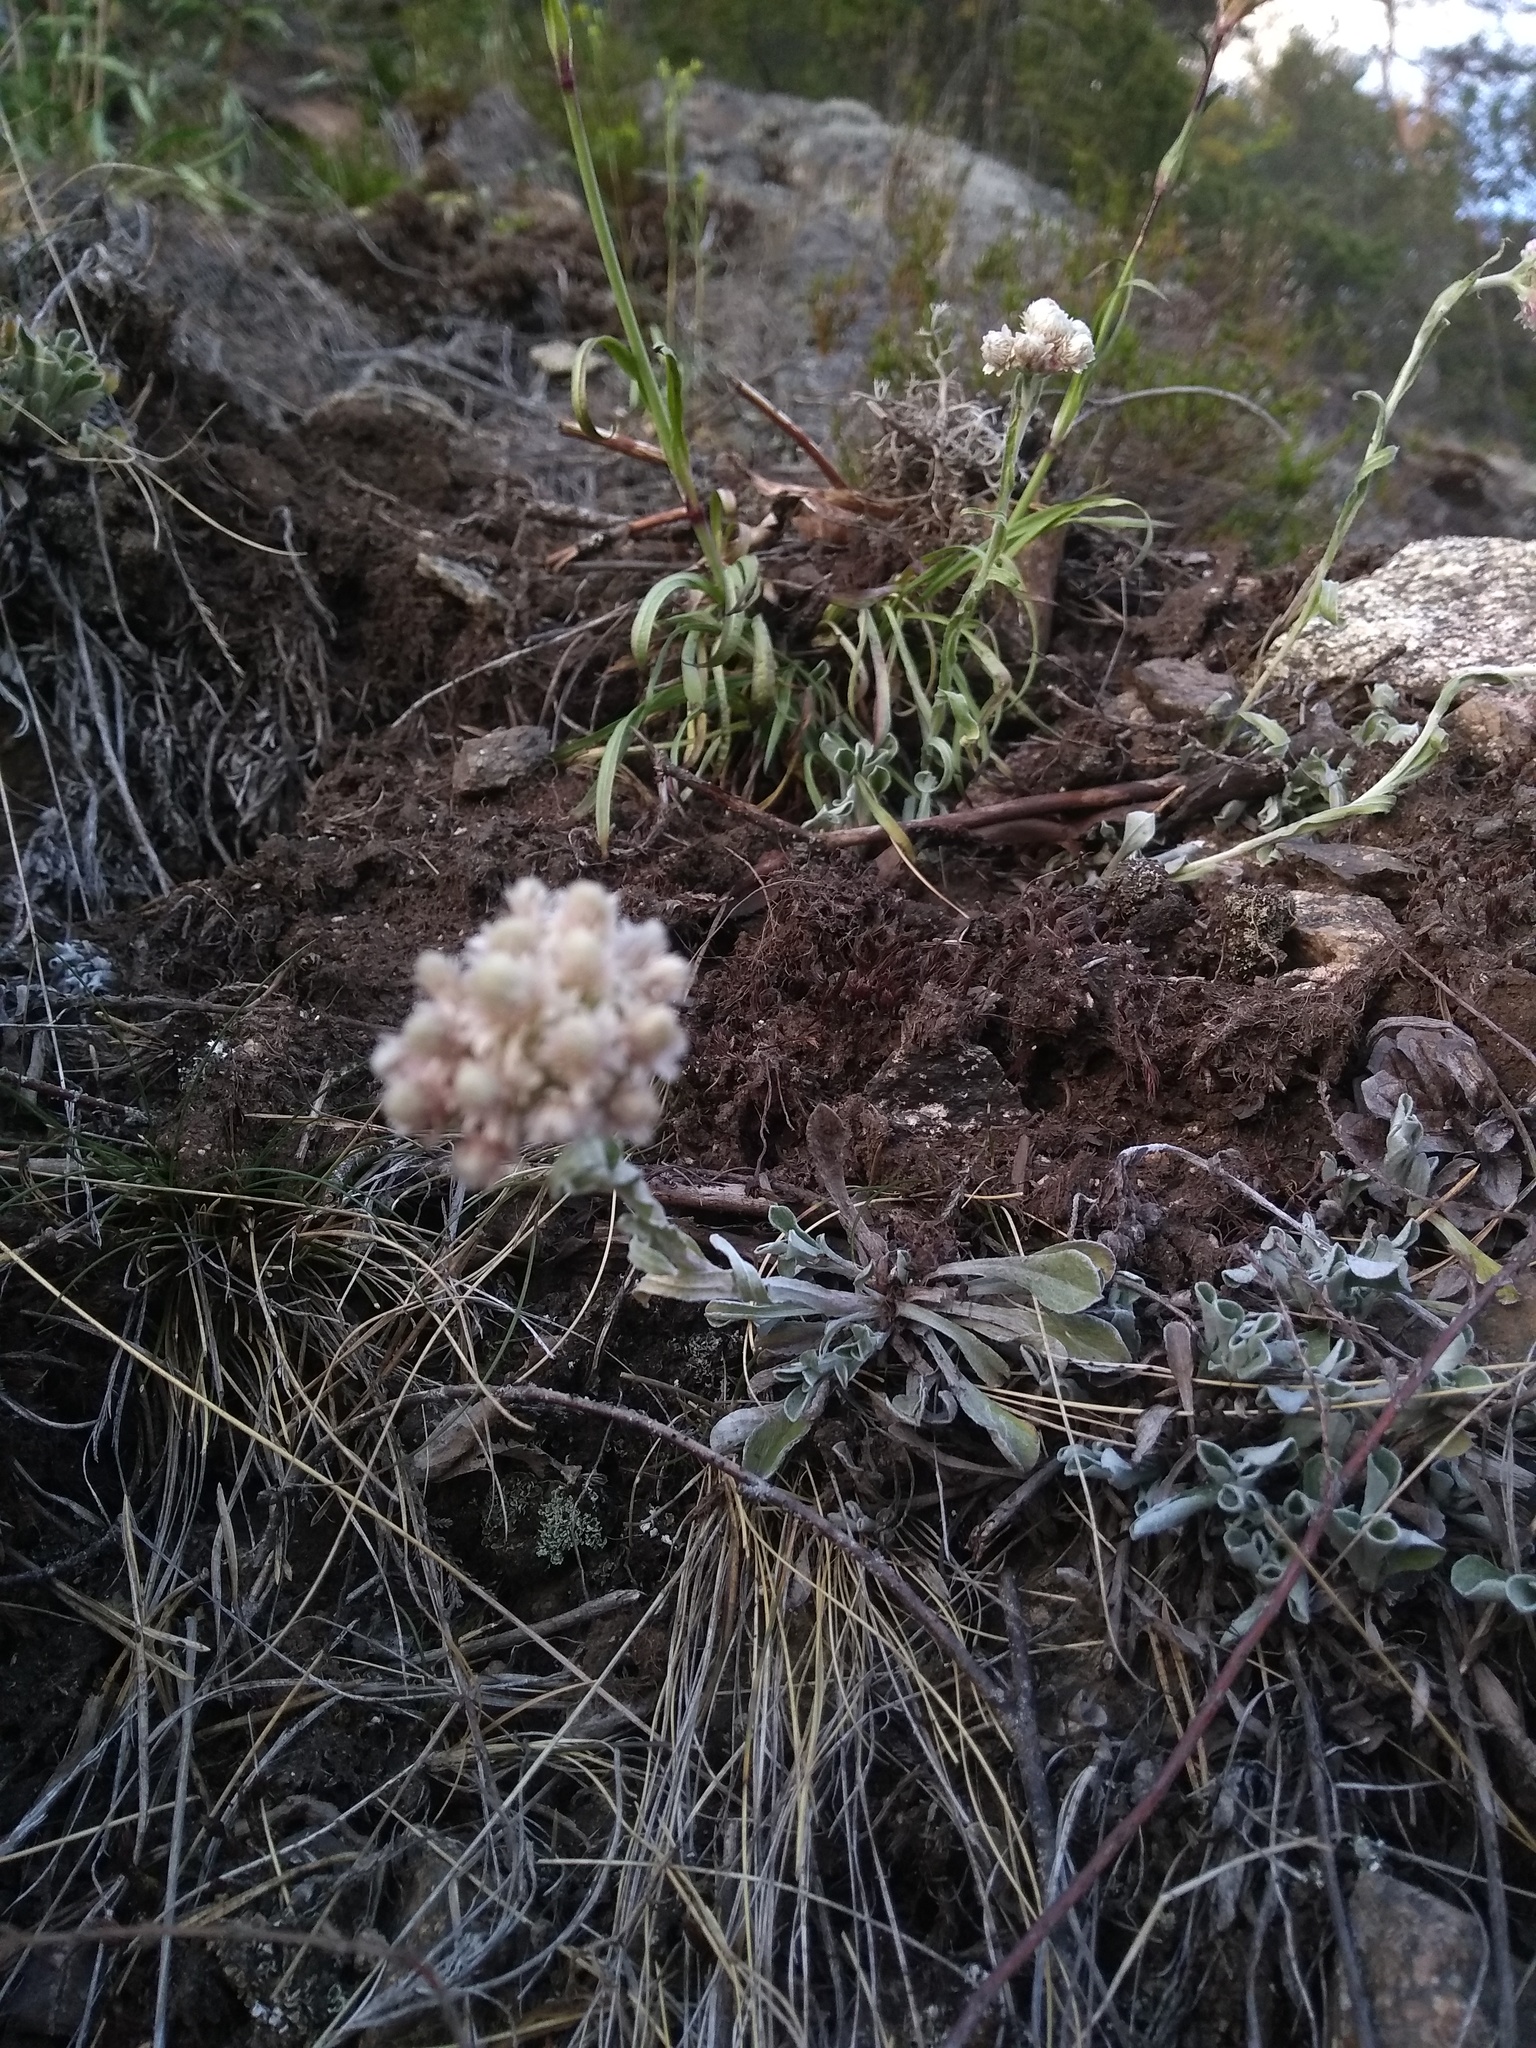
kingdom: Plantae
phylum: Tracheophyta
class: Magnoliopsida
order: Asterales
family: Asteraceae
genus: Antennaria
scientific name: Antennaria dioica
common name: Mountain everlasting
